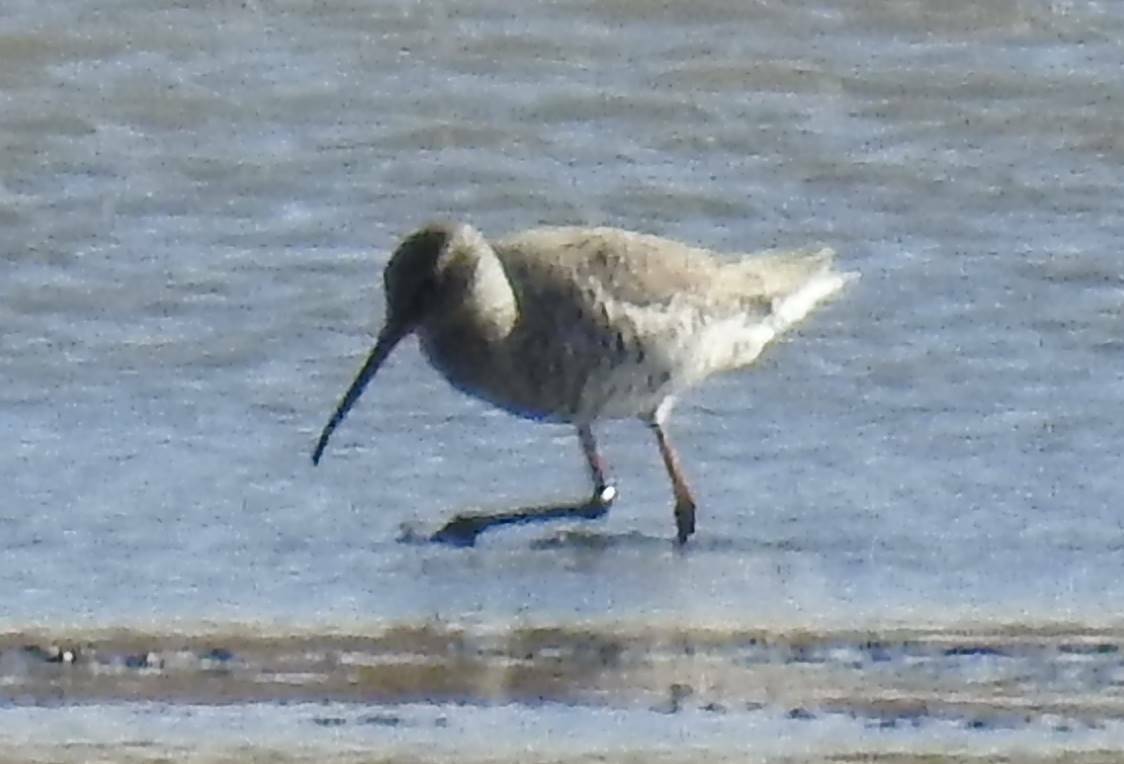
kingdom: Animalia
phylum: Chordata
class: Aves
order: Charadriiformes
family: Scolopacidae
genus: Tringa
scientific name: Tringa erythropus
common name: Spotted redshank
